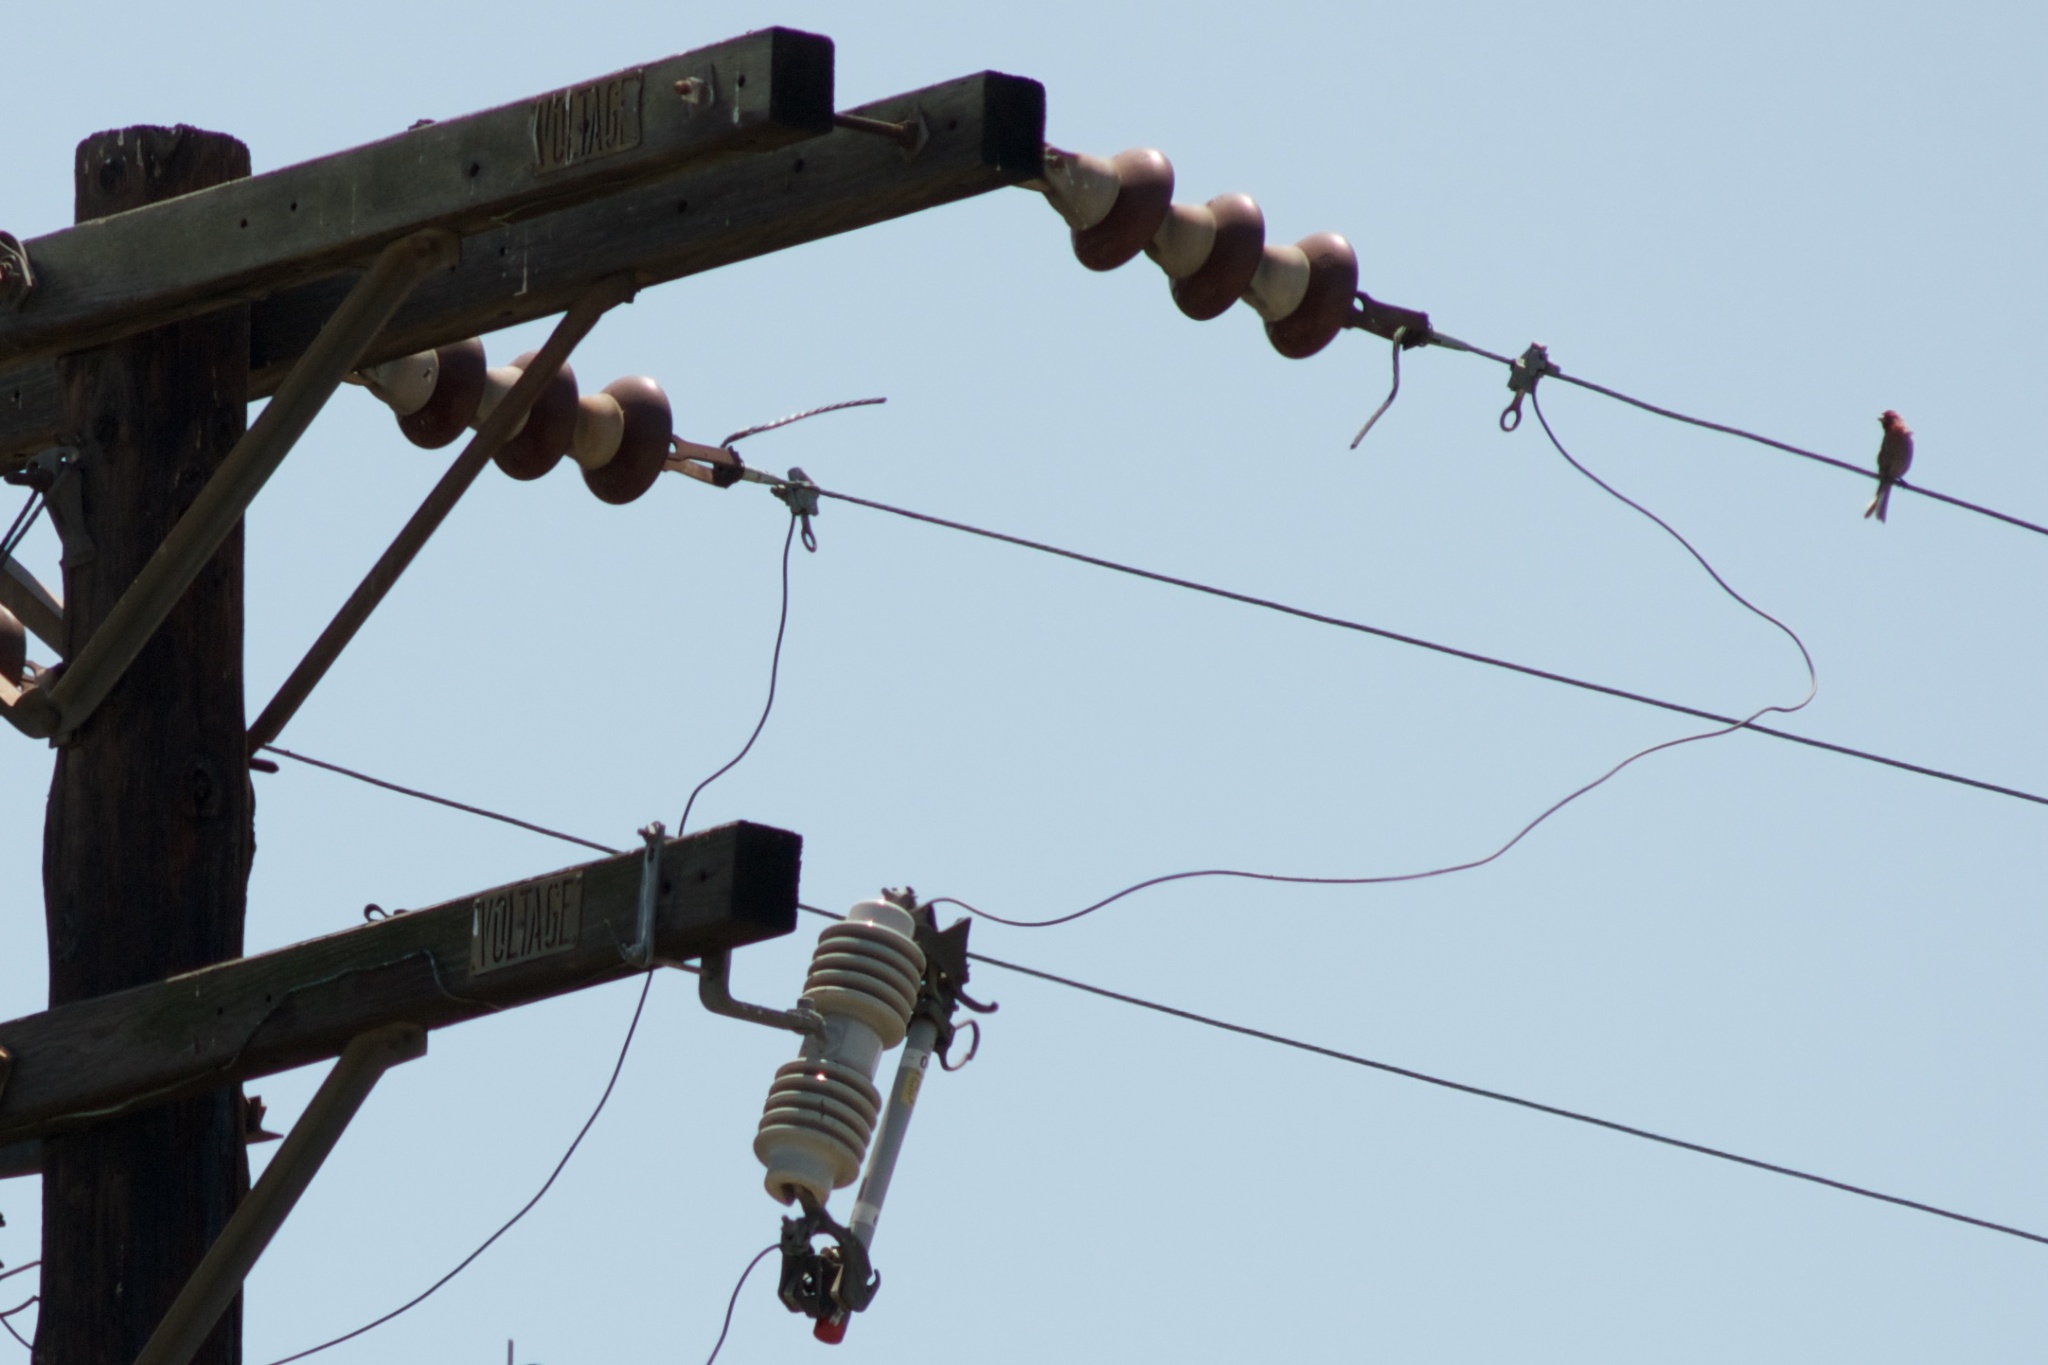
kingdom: Animalia
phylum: Chordata
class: Aves
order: Passeriformes
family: Fringillidae
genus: Haemorhous
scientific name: Haemorhous mexicanus
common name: House finch
